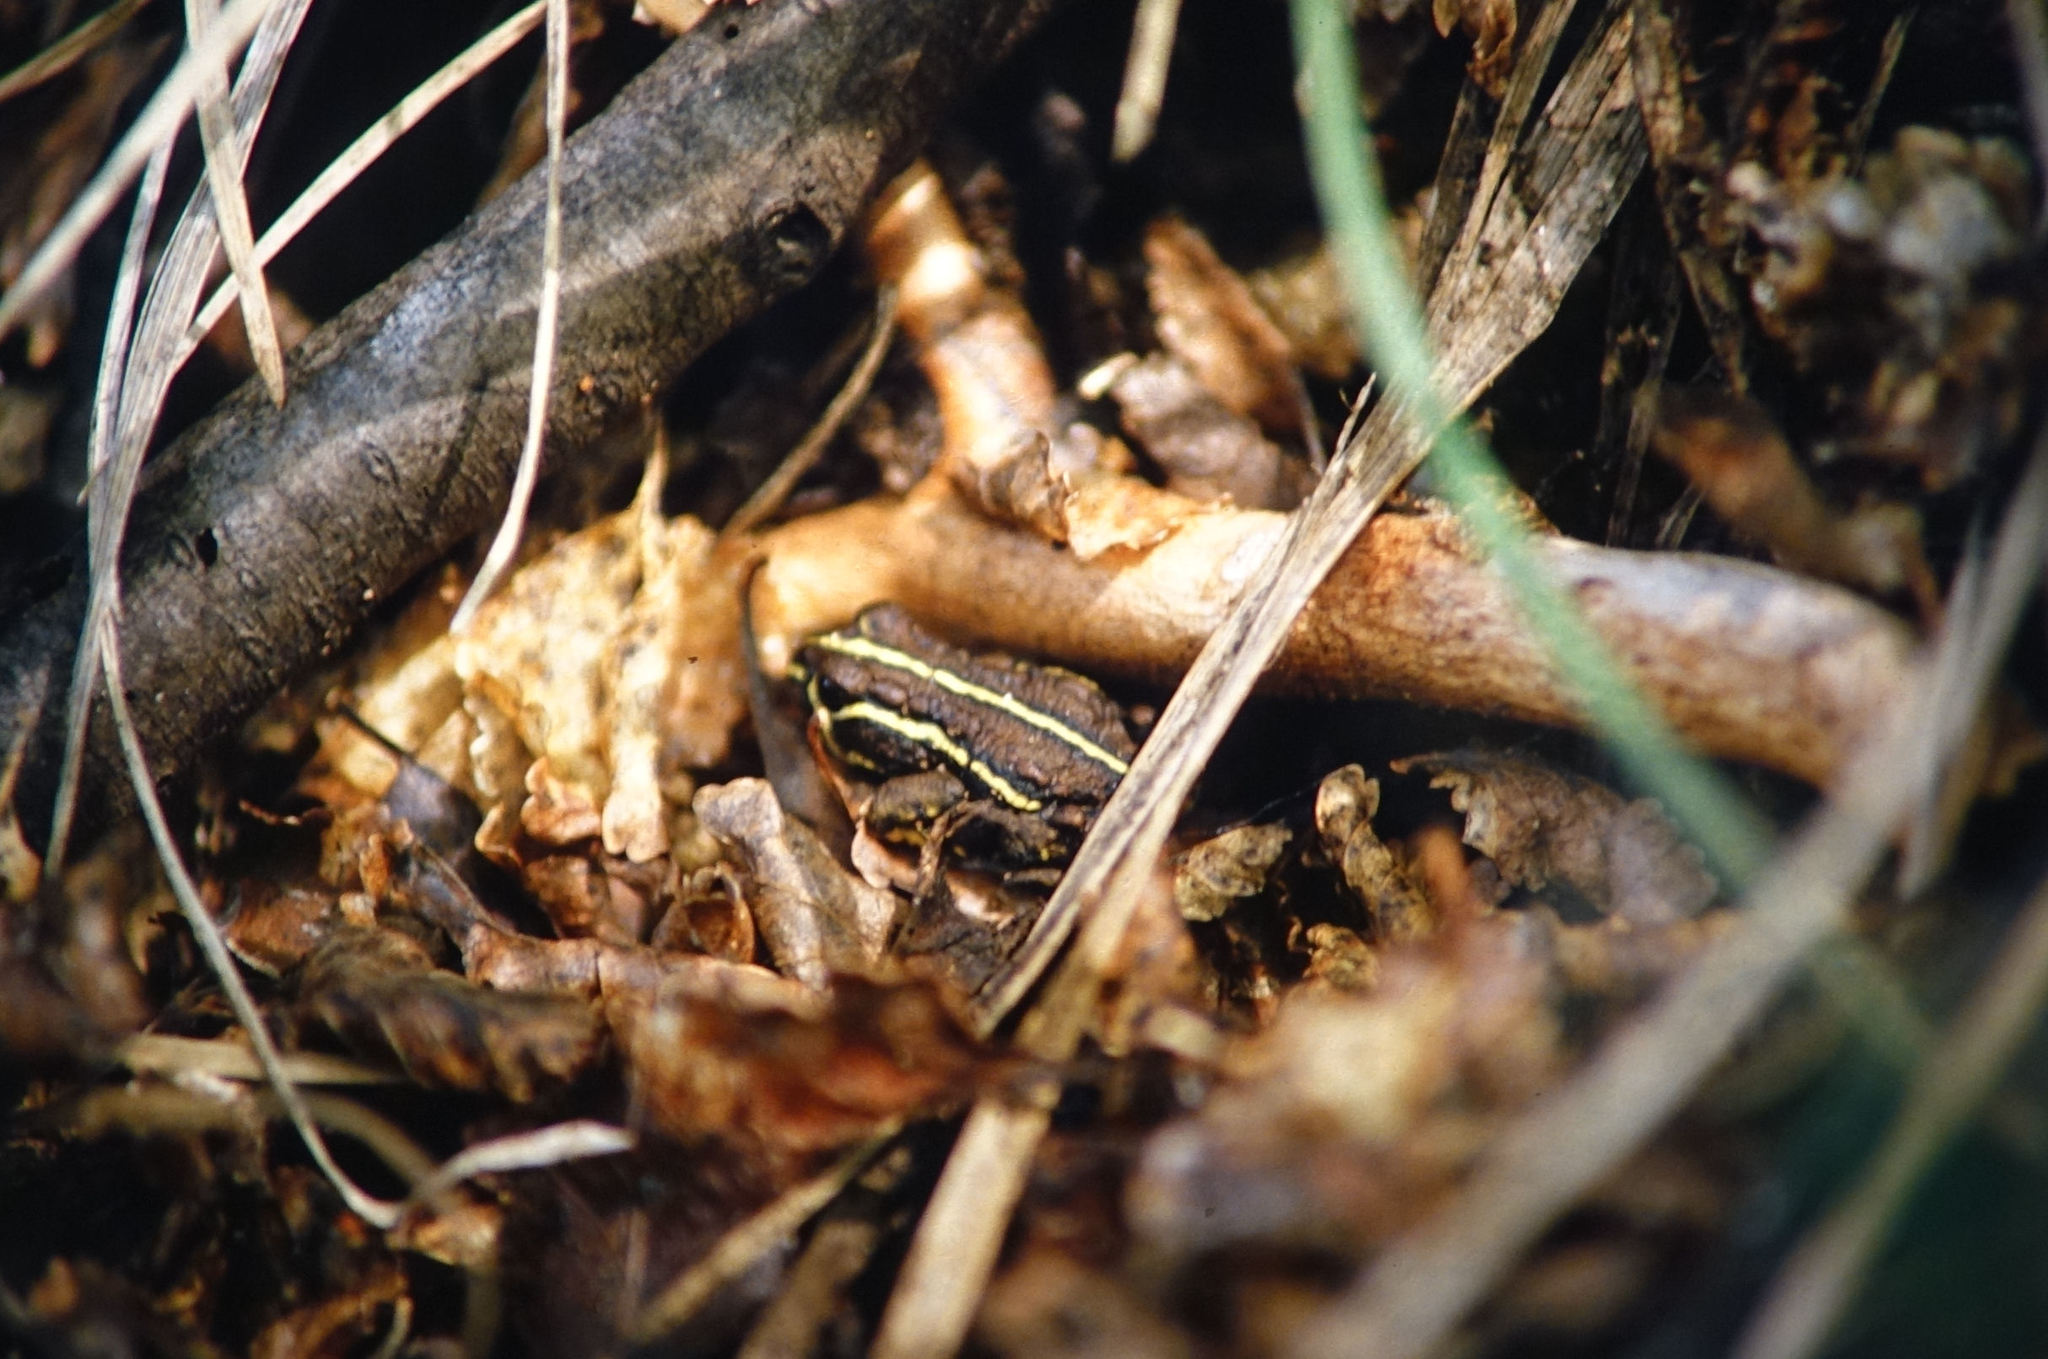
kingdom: Animalia
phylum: Chordata
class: Amphibia
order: Anura
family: Bufonidae
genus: Nannophryne
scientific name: Nannophryne variegata
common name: Eden harbour toad
